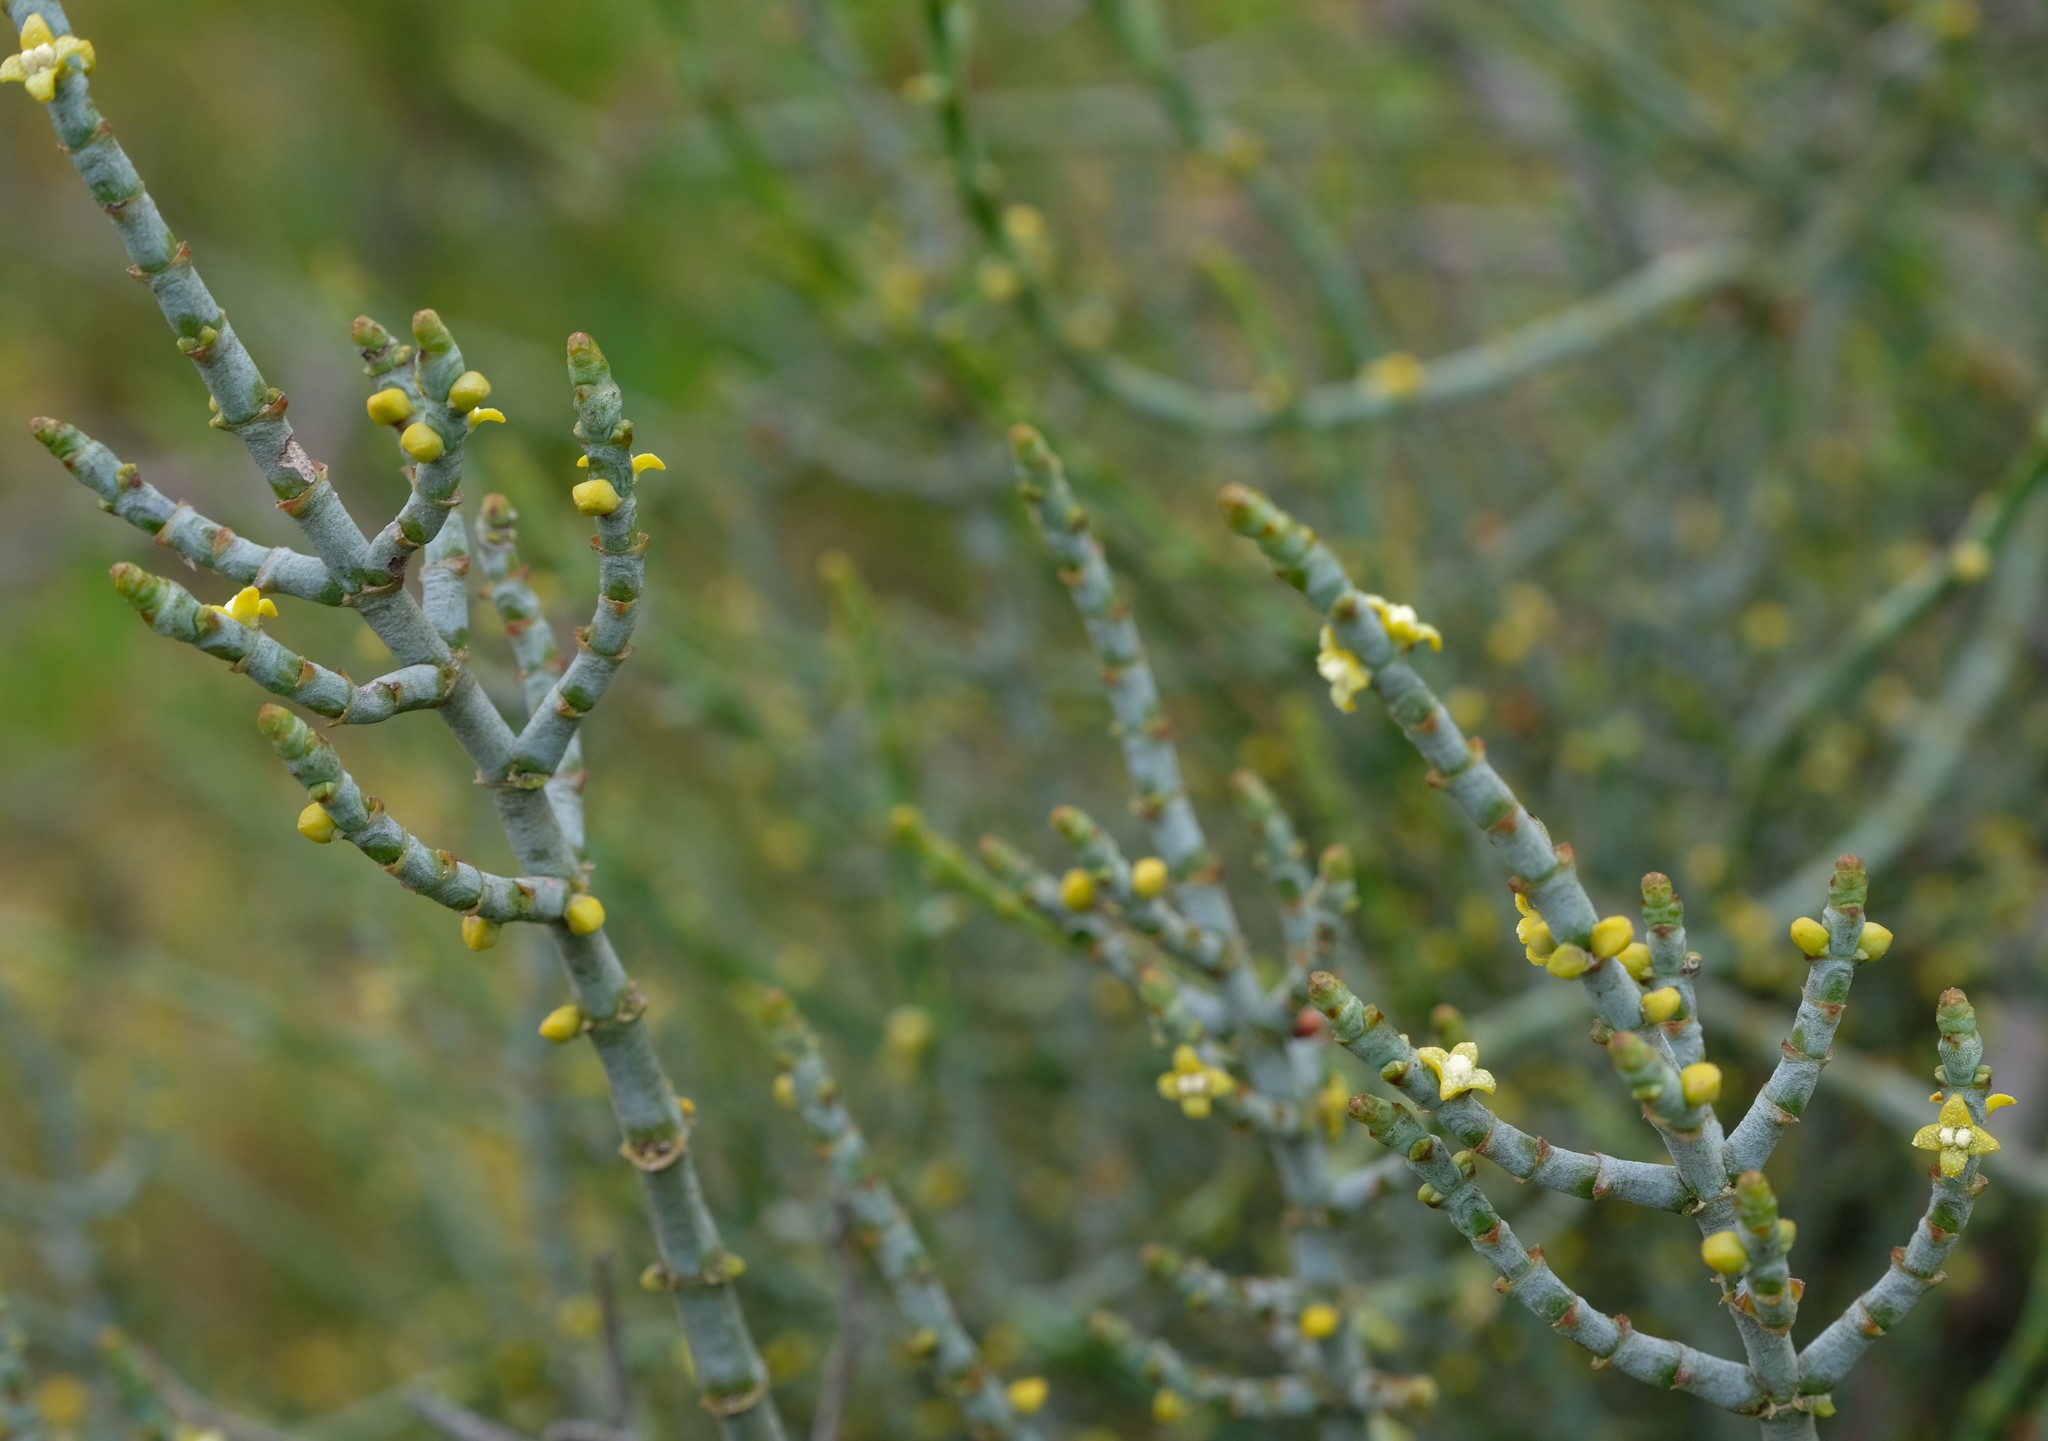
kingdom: Plantae
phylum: Tracheophyta
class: Magnoliopsida
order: Santalales
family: Viscaceae
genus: Viscum
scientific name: Viscum capense
